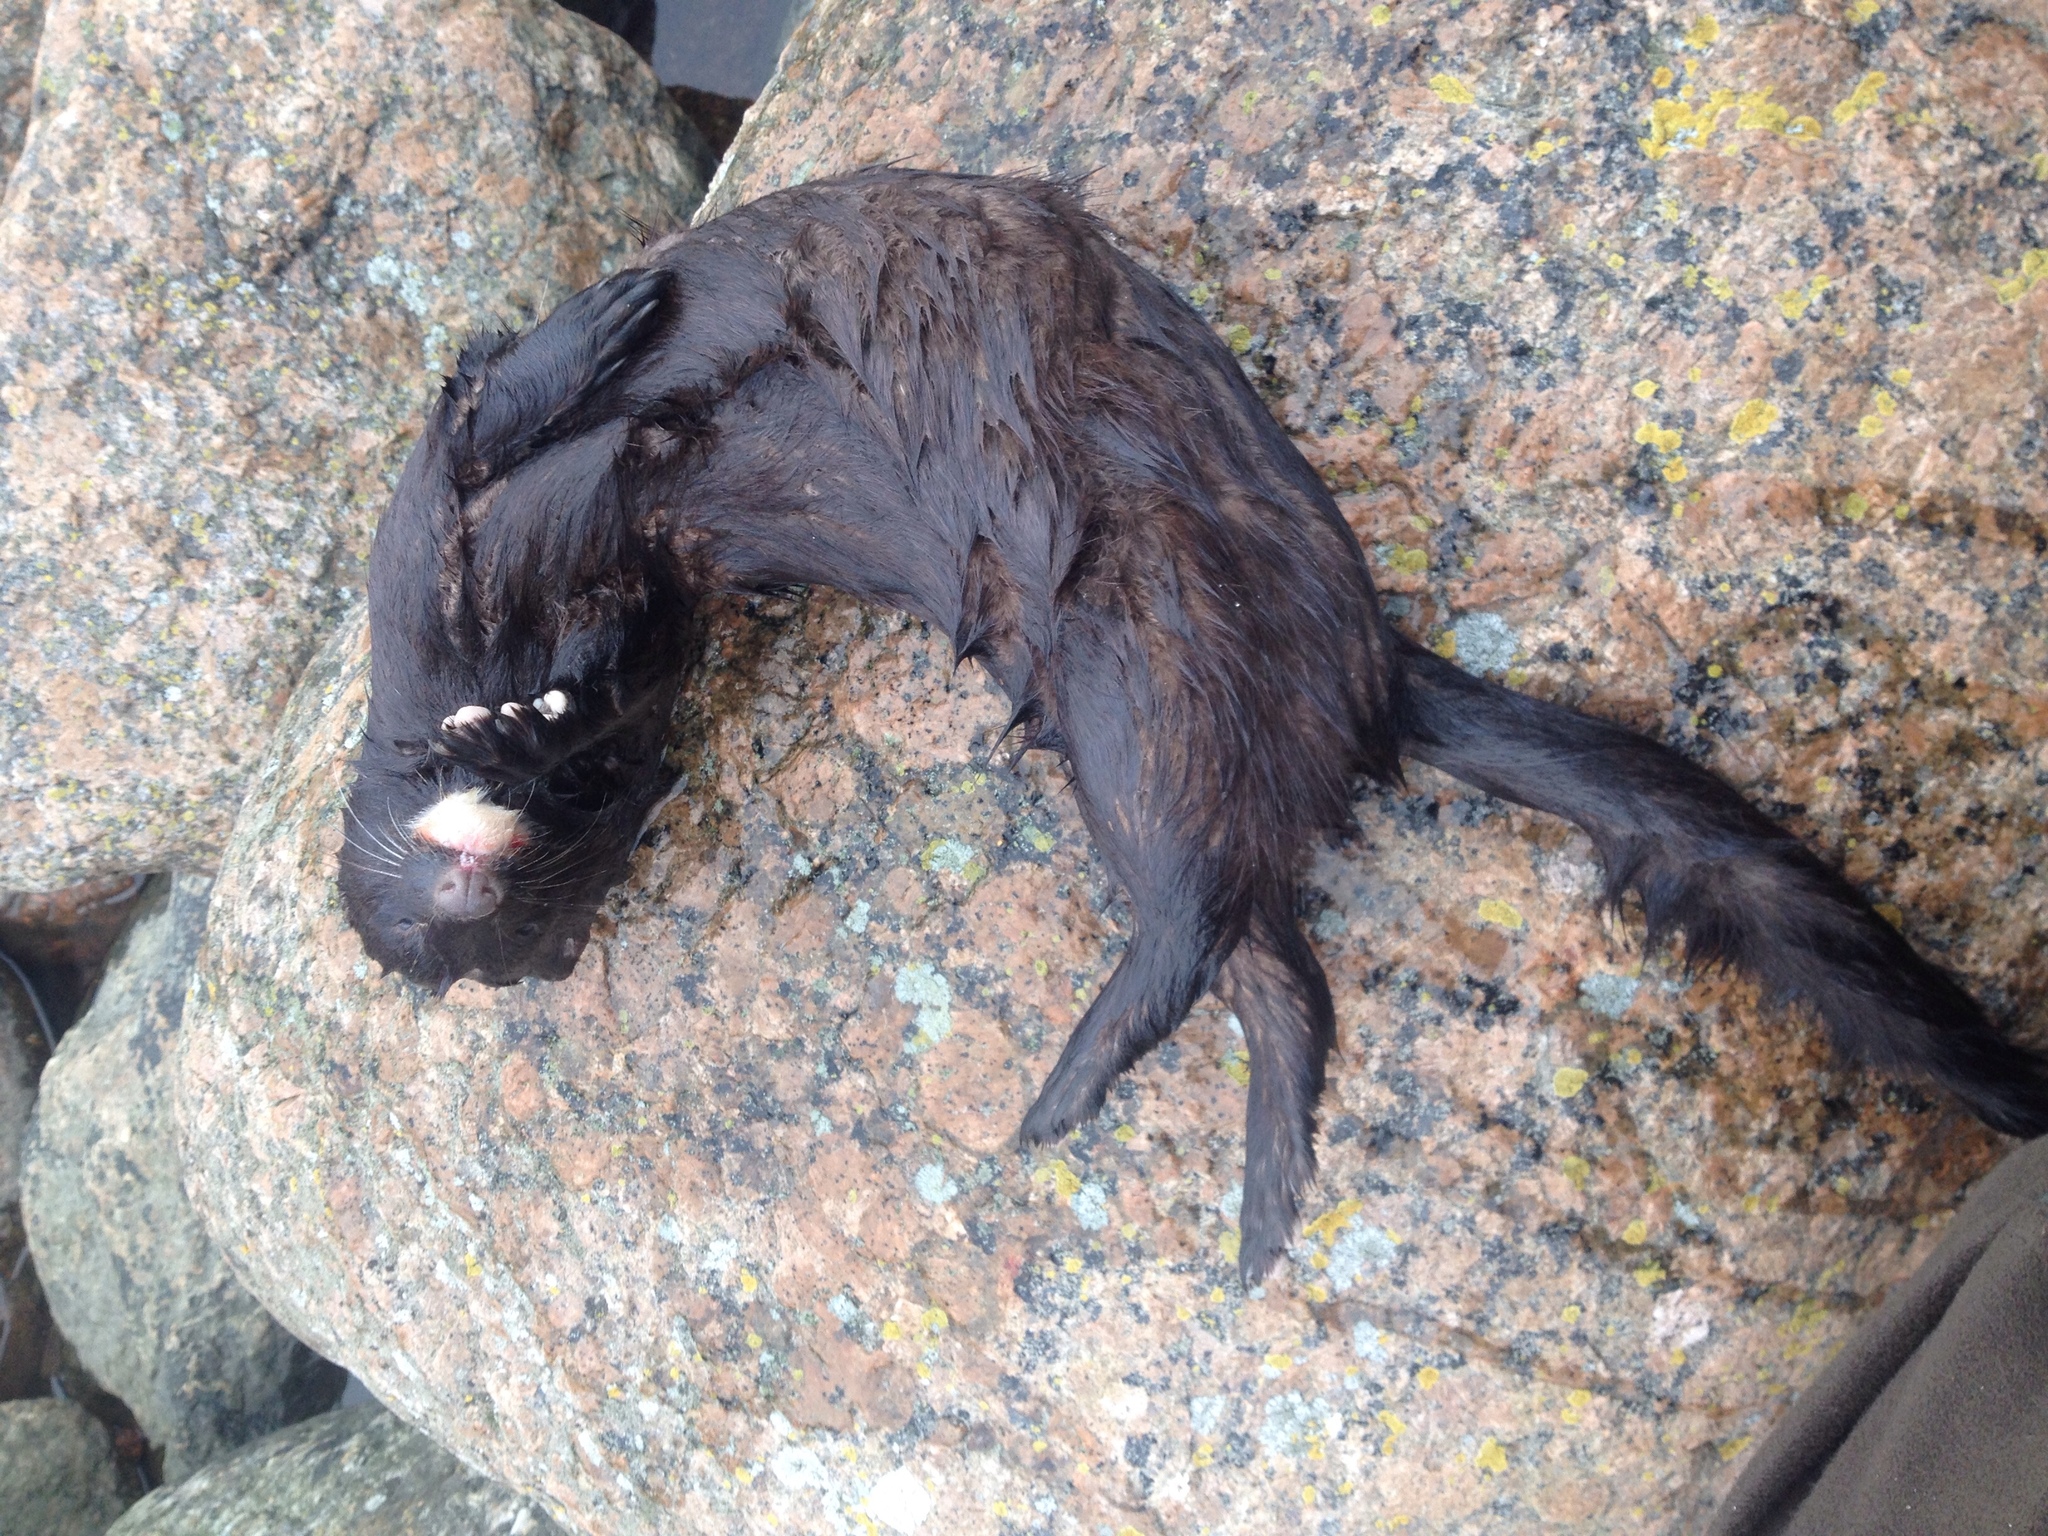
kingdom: Animalia
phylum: Chordata
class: Mammalia
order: Carnivora
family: Mustelidae
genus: Mustela
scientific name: Mustela
